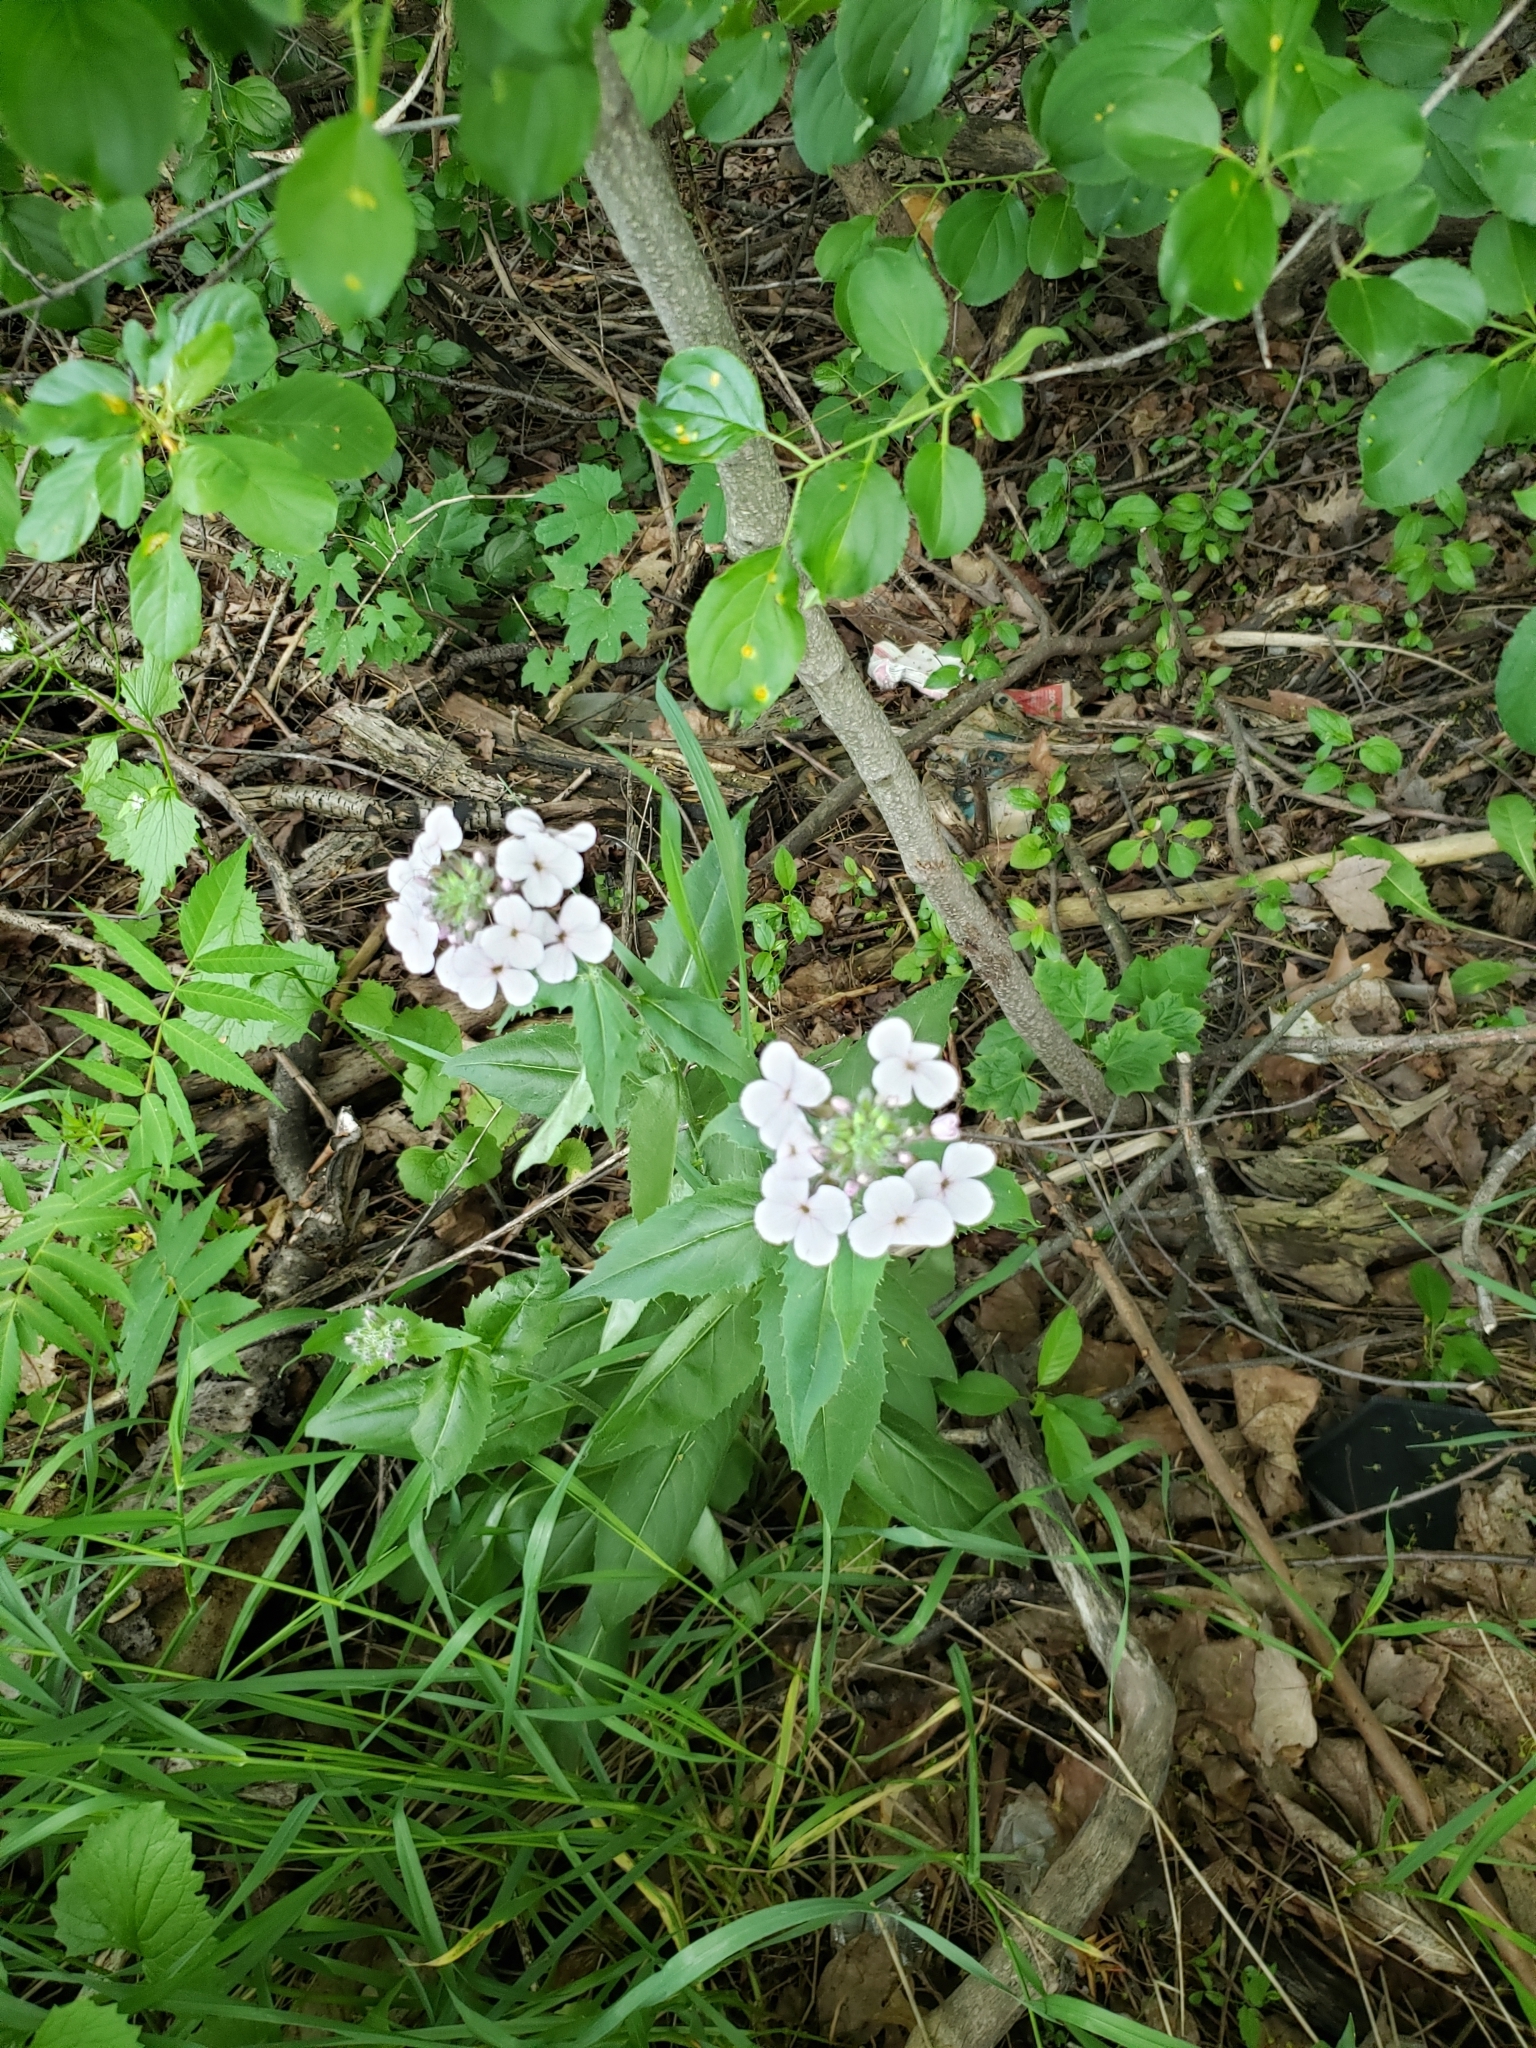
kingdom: Plantae
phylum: Tracheophyta
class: Magnoliopsida
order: Brassicales
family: Brassicaceae
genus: Hesperis
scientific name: Hesperis matronalis
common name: Dame's-violet
